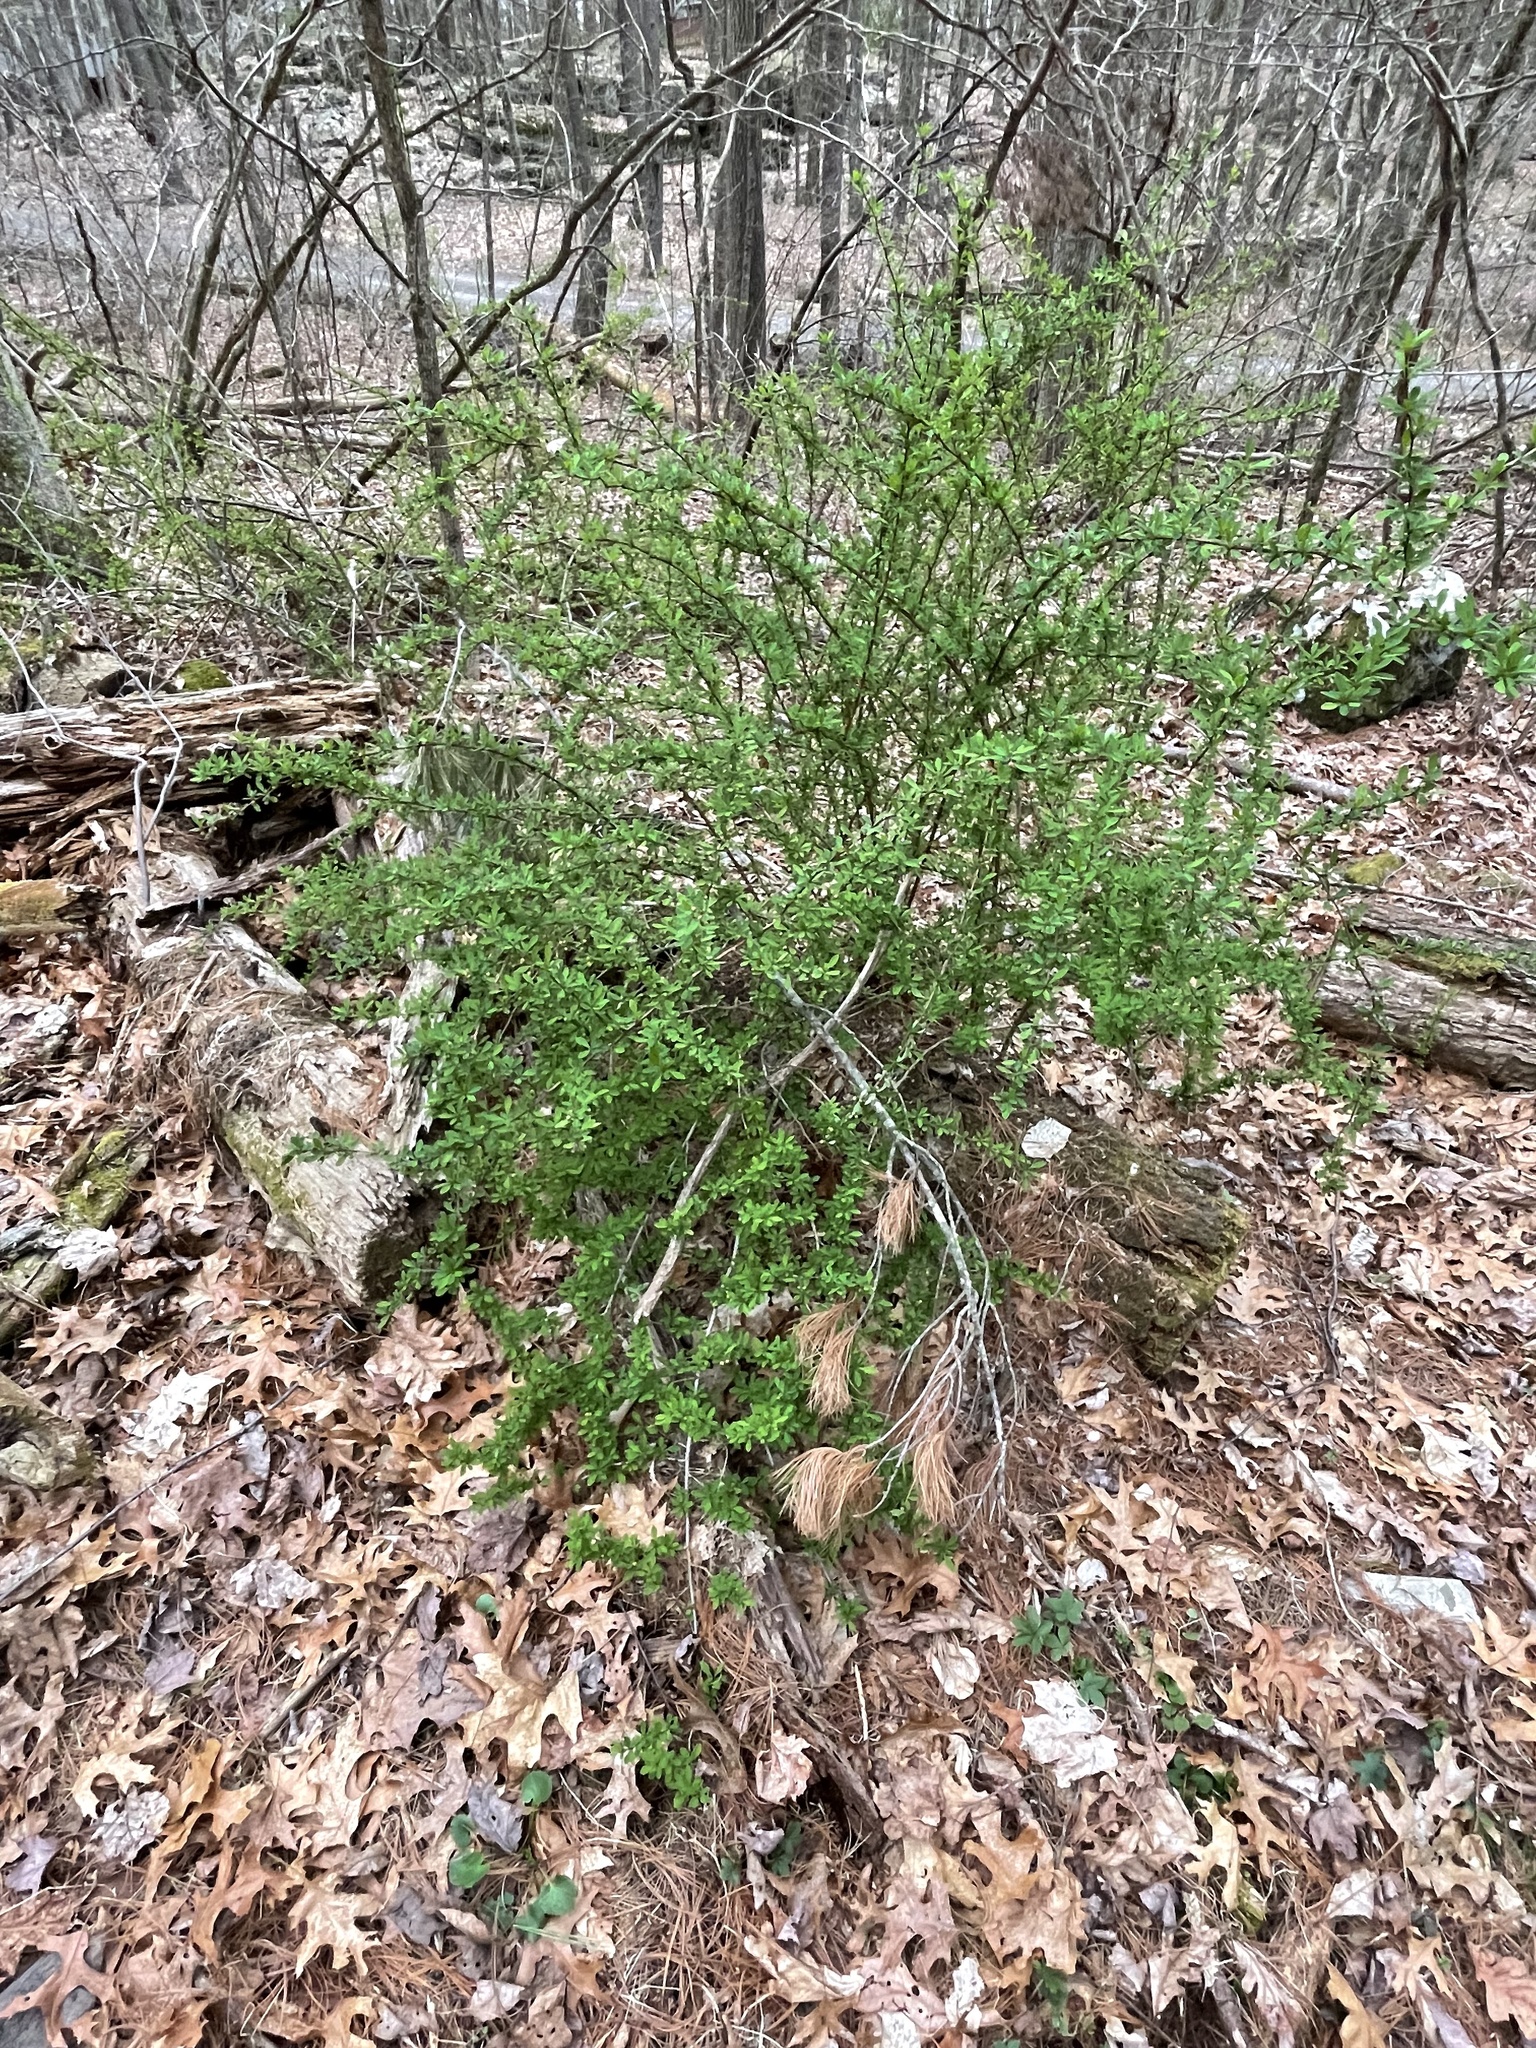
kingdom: Plantae
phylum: Tracheophyta
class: Magnoliopsida
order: Ranunculales
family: Berberidaceae
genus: Berberis
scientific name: Berberis thunbergii
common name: Japanese barberry
